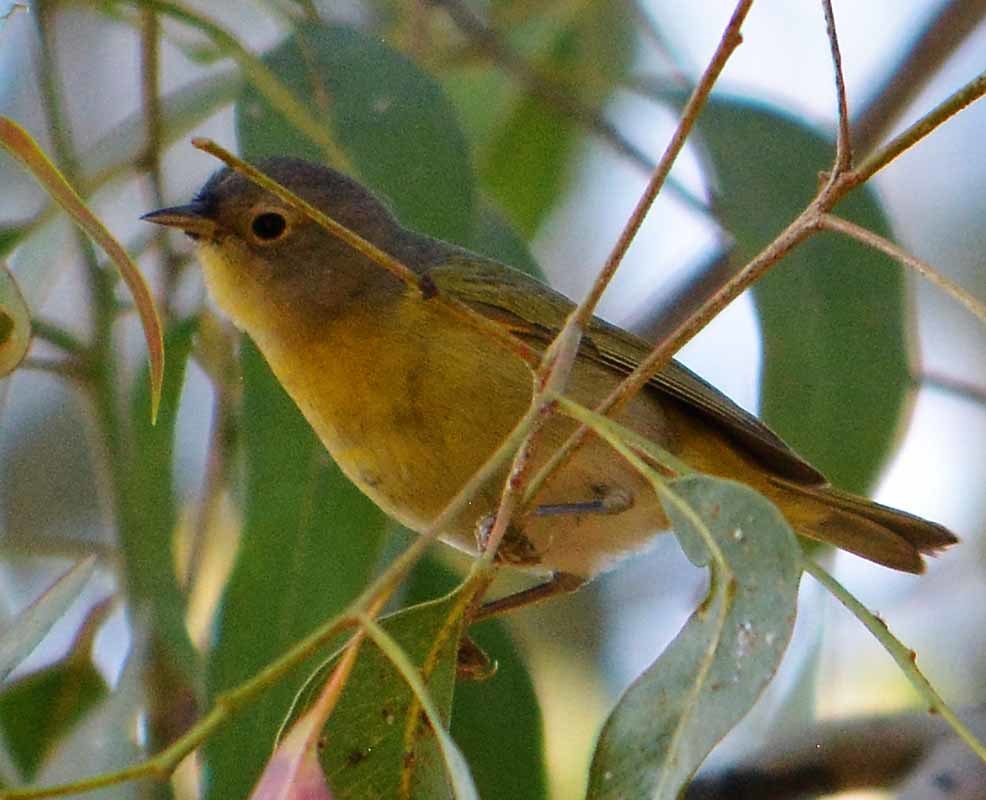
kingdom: Animalia
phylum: Chordata
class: Aves
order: Passeriformes
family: Parulidae
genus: Leiothlypis
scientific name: Leiothlypis ruficapilla
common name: Nashville warbler
